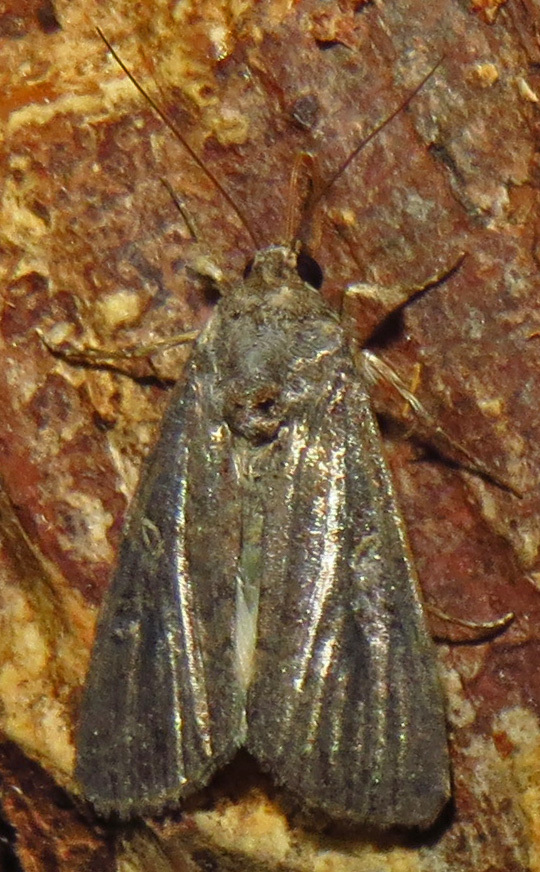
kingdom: Animalia
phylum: Arthropoda
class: Insecta
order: Lepidoptera
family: Noctuidae
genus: Spodoptera
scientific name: Spodoptera frugiperda
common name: Fall armyworm
